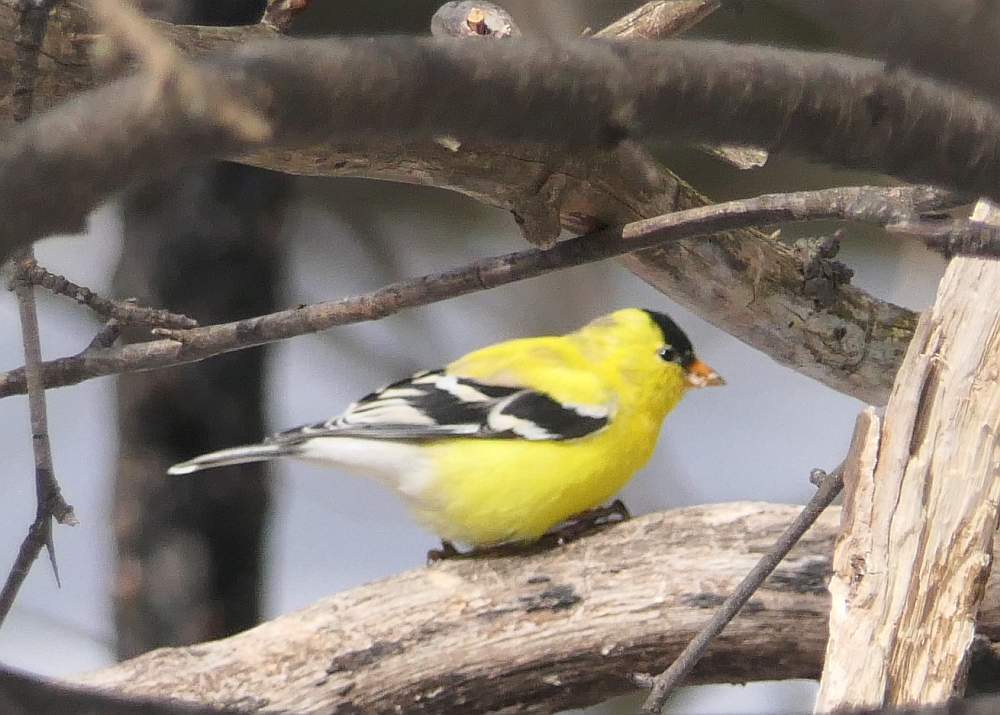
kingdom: Animalia
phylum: Chordata
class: Aves
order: Passeriformes
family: Fringillidae
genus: Spinus
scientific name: Spinus tristis
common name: American goldfinch
